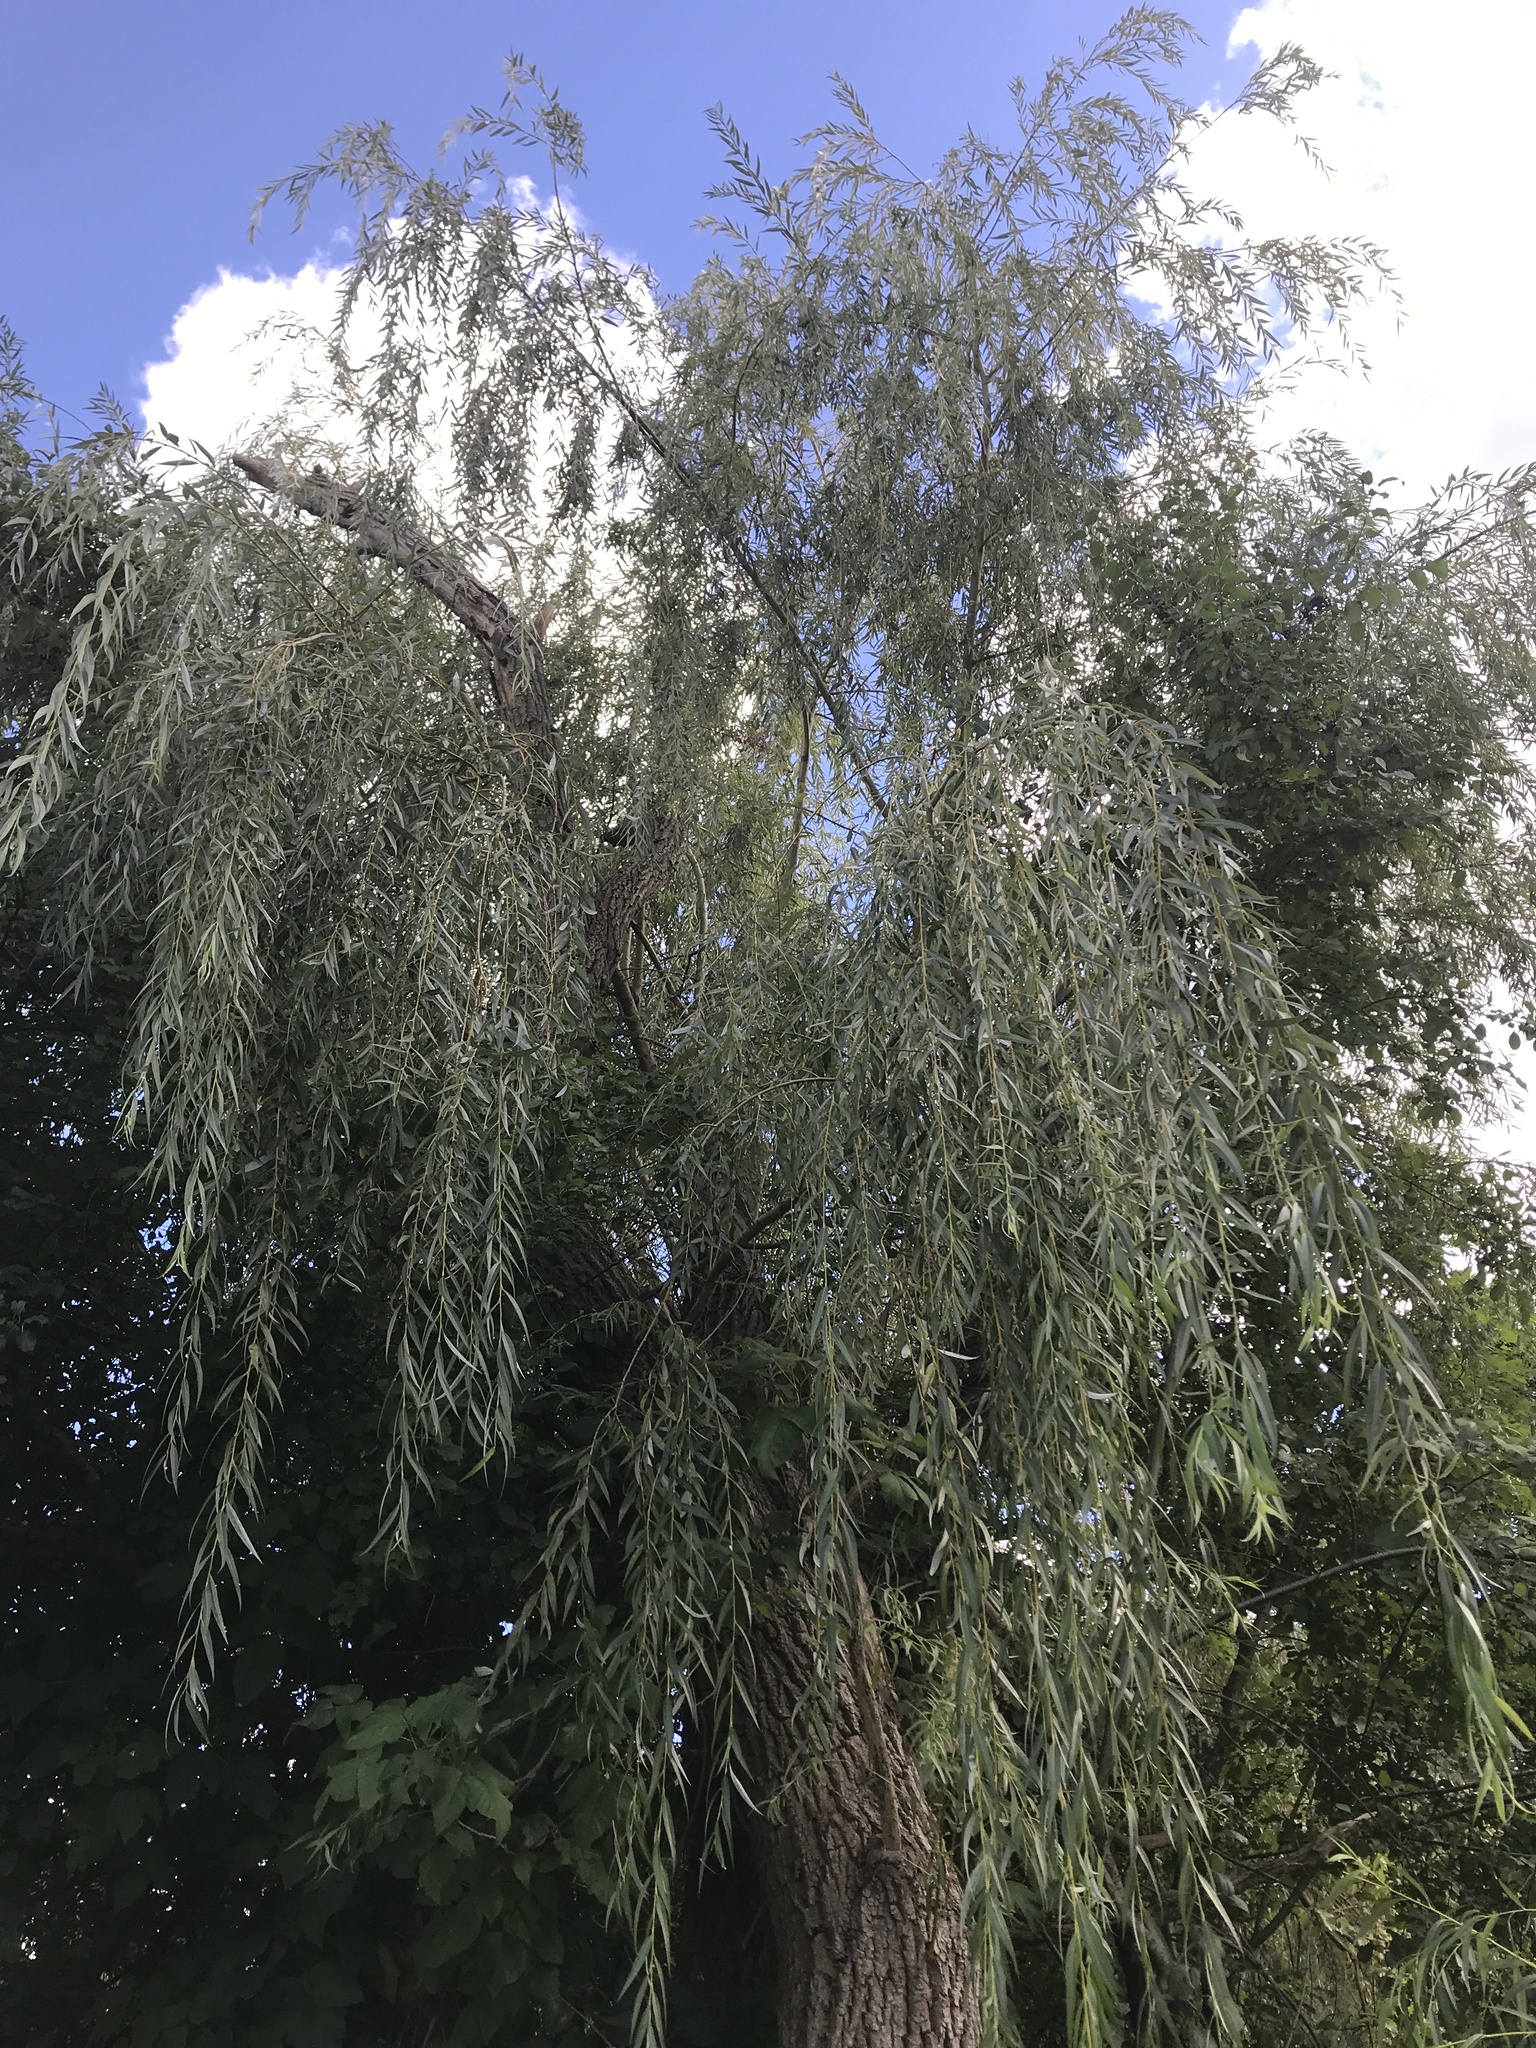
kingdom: Plantae
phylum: Tracheophyta
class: Magnoliopsida
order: Malpighiales
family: Salicaceae
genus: Salix
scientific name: Salix babylonica
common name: Weeping willow
